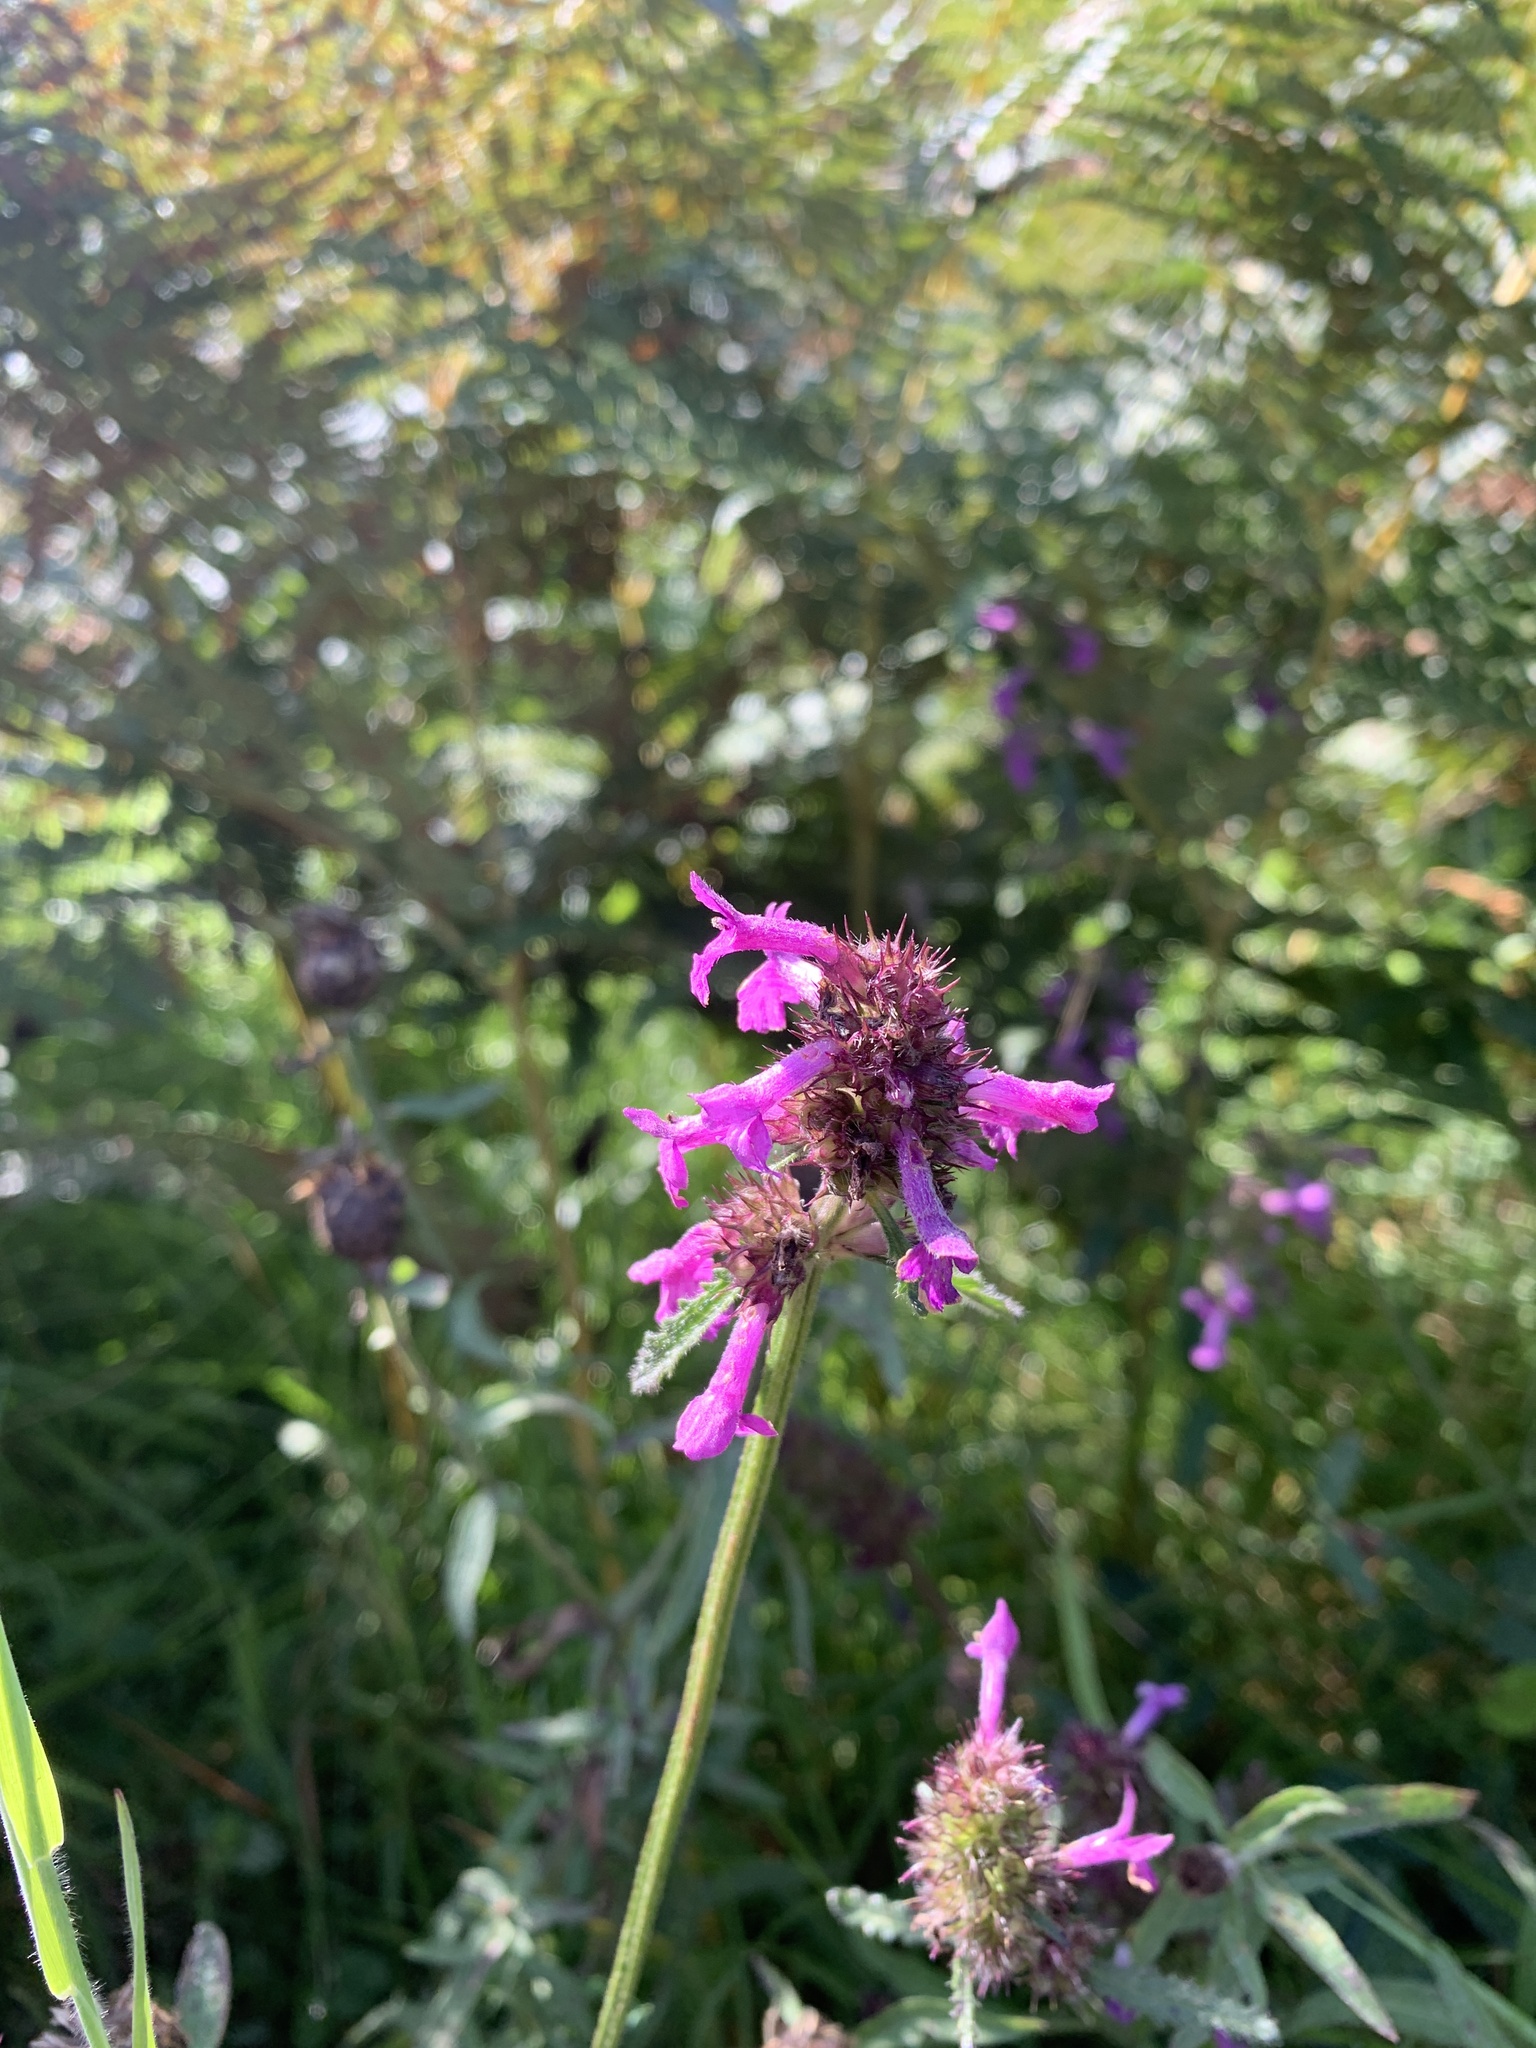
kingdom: Plantae
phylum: Tracheophyta
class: Magnoliopsida
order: Lamiales
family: Lamiaceae
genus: Betonica
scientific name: Betonica officinalis
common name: Bishop's-wort
